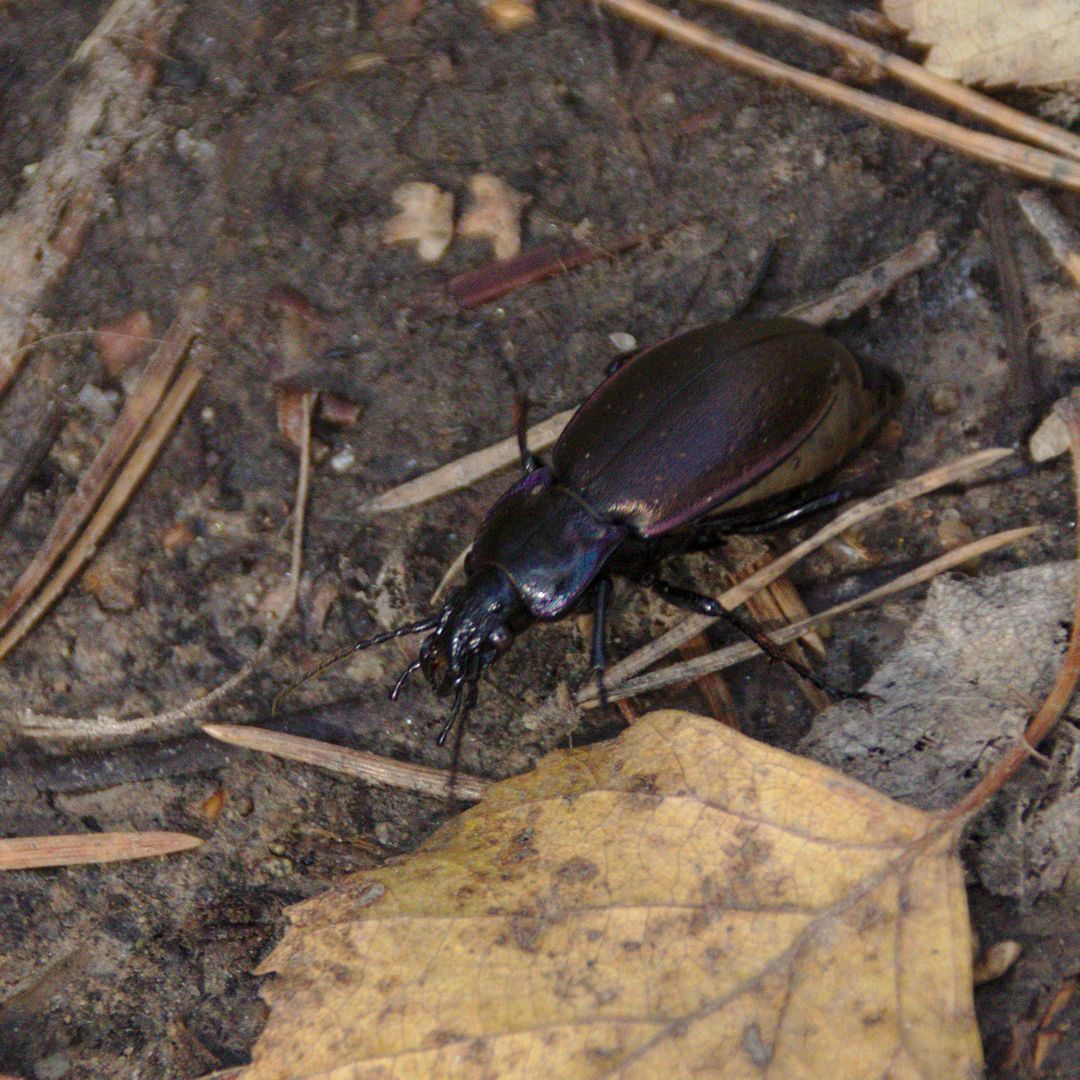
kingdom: Animalia
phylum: Arthropoda
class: Insecta
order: Coleoptera
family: Carabidae
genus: Carabus
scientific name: Carabus nemoralis
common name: European ground beetle
